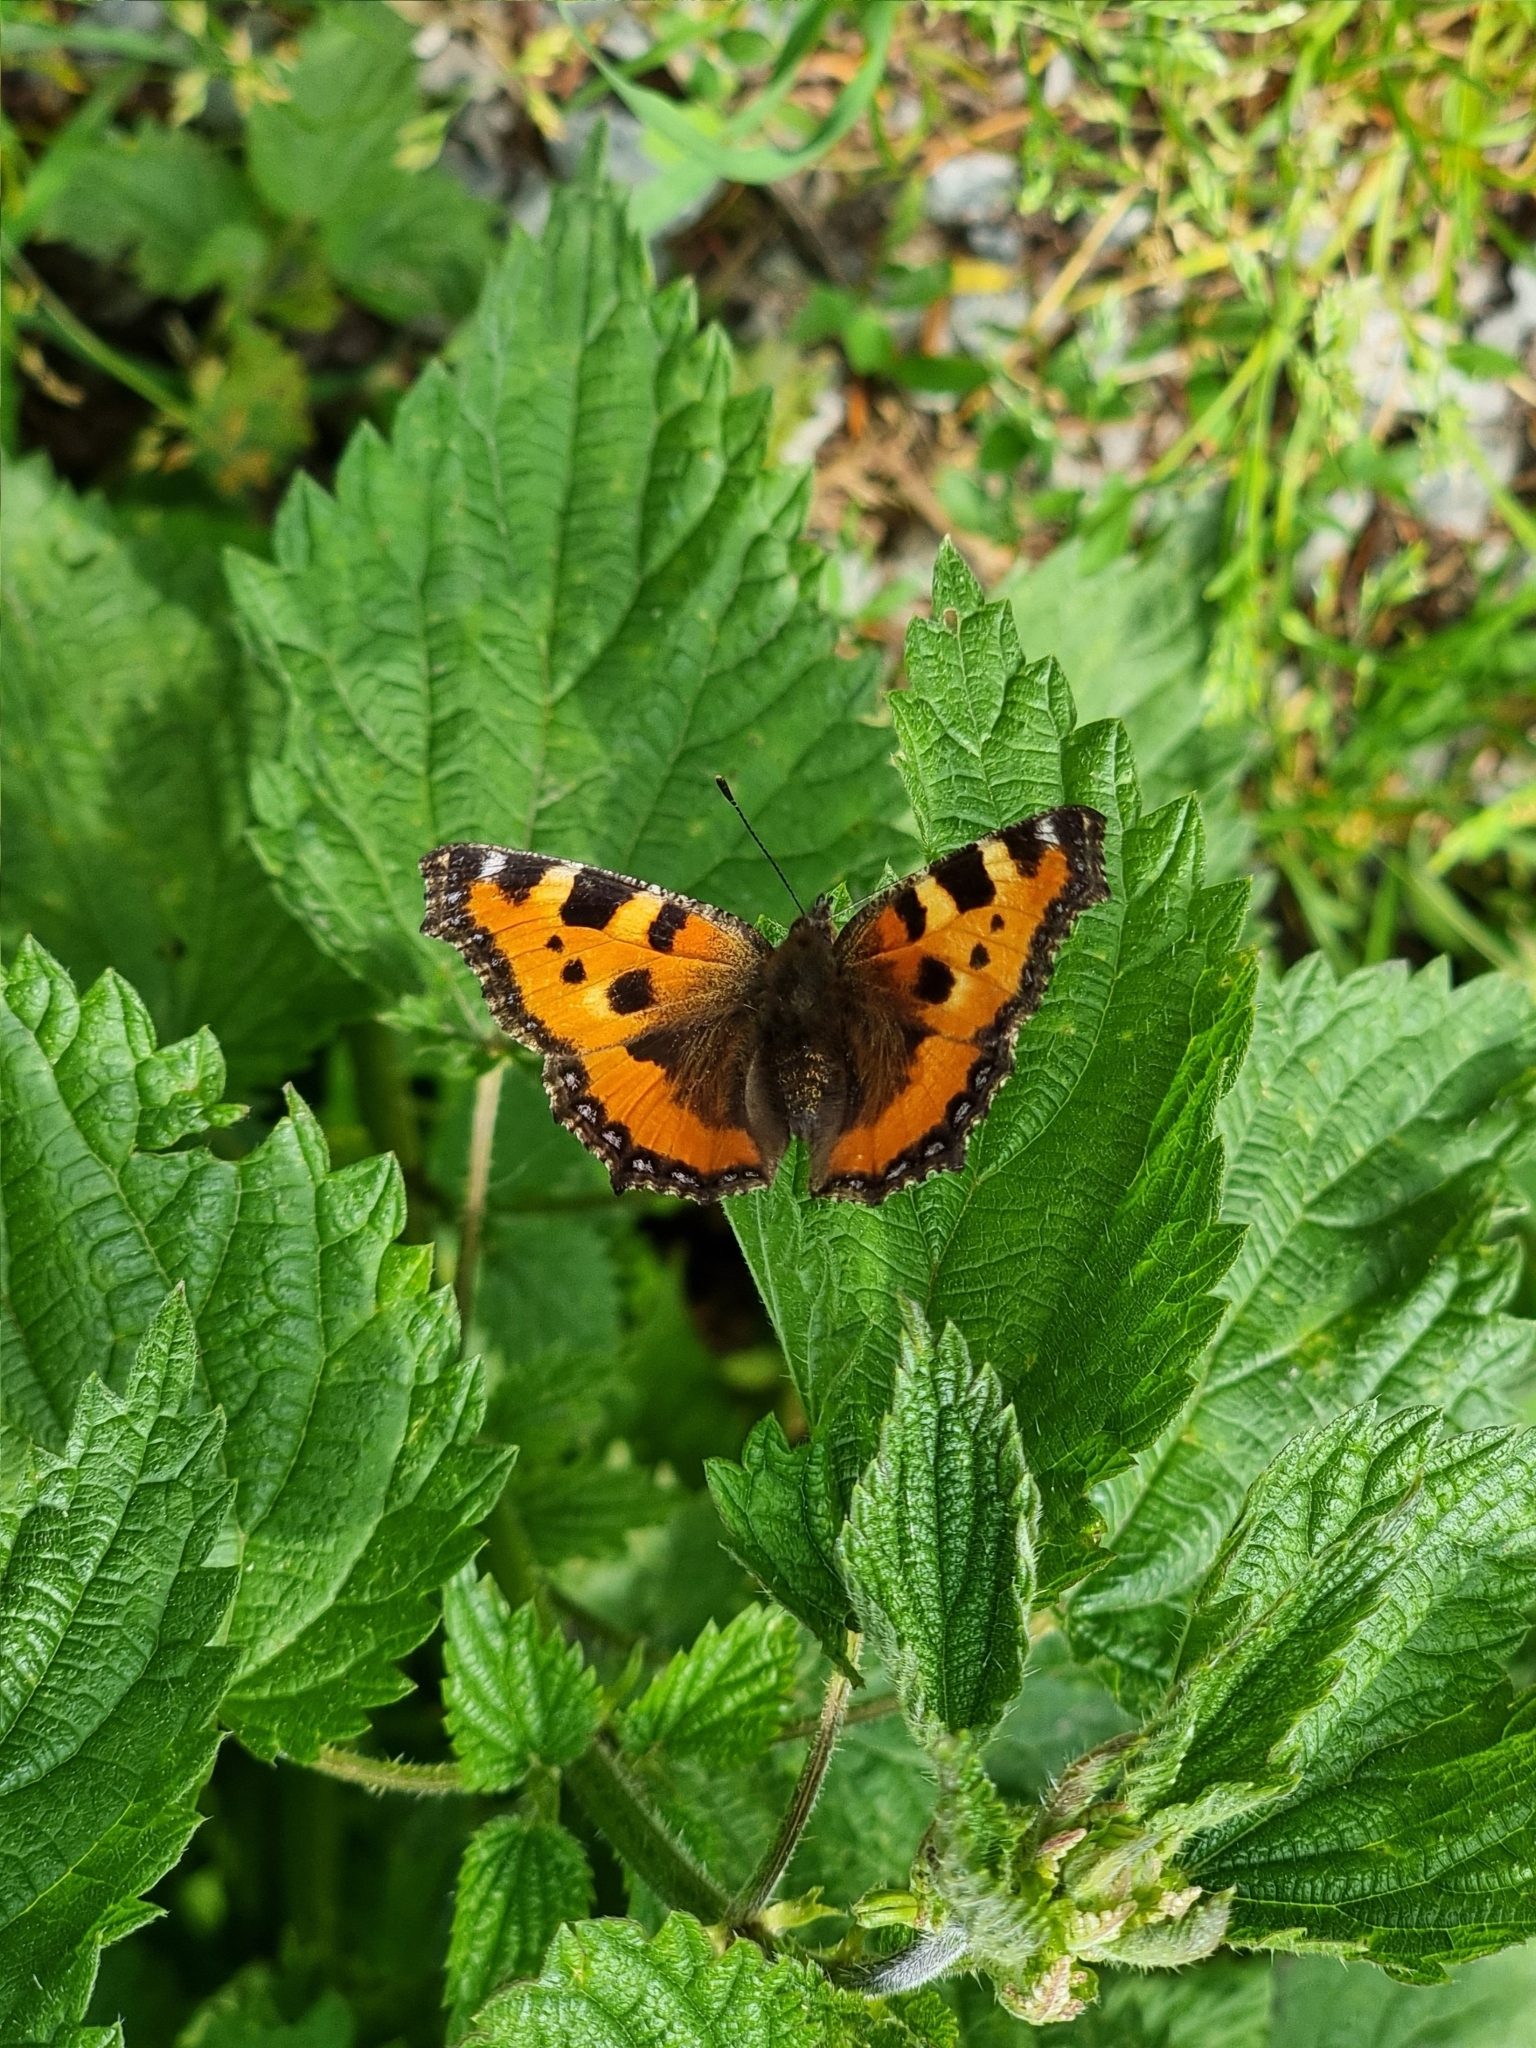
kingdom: Animalia
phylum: Arthropoda
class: Insecta
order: Lepidoptera
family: Nymphalidae
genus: Aglais
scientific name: Aglais urticae
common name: Small tortoiseshell
